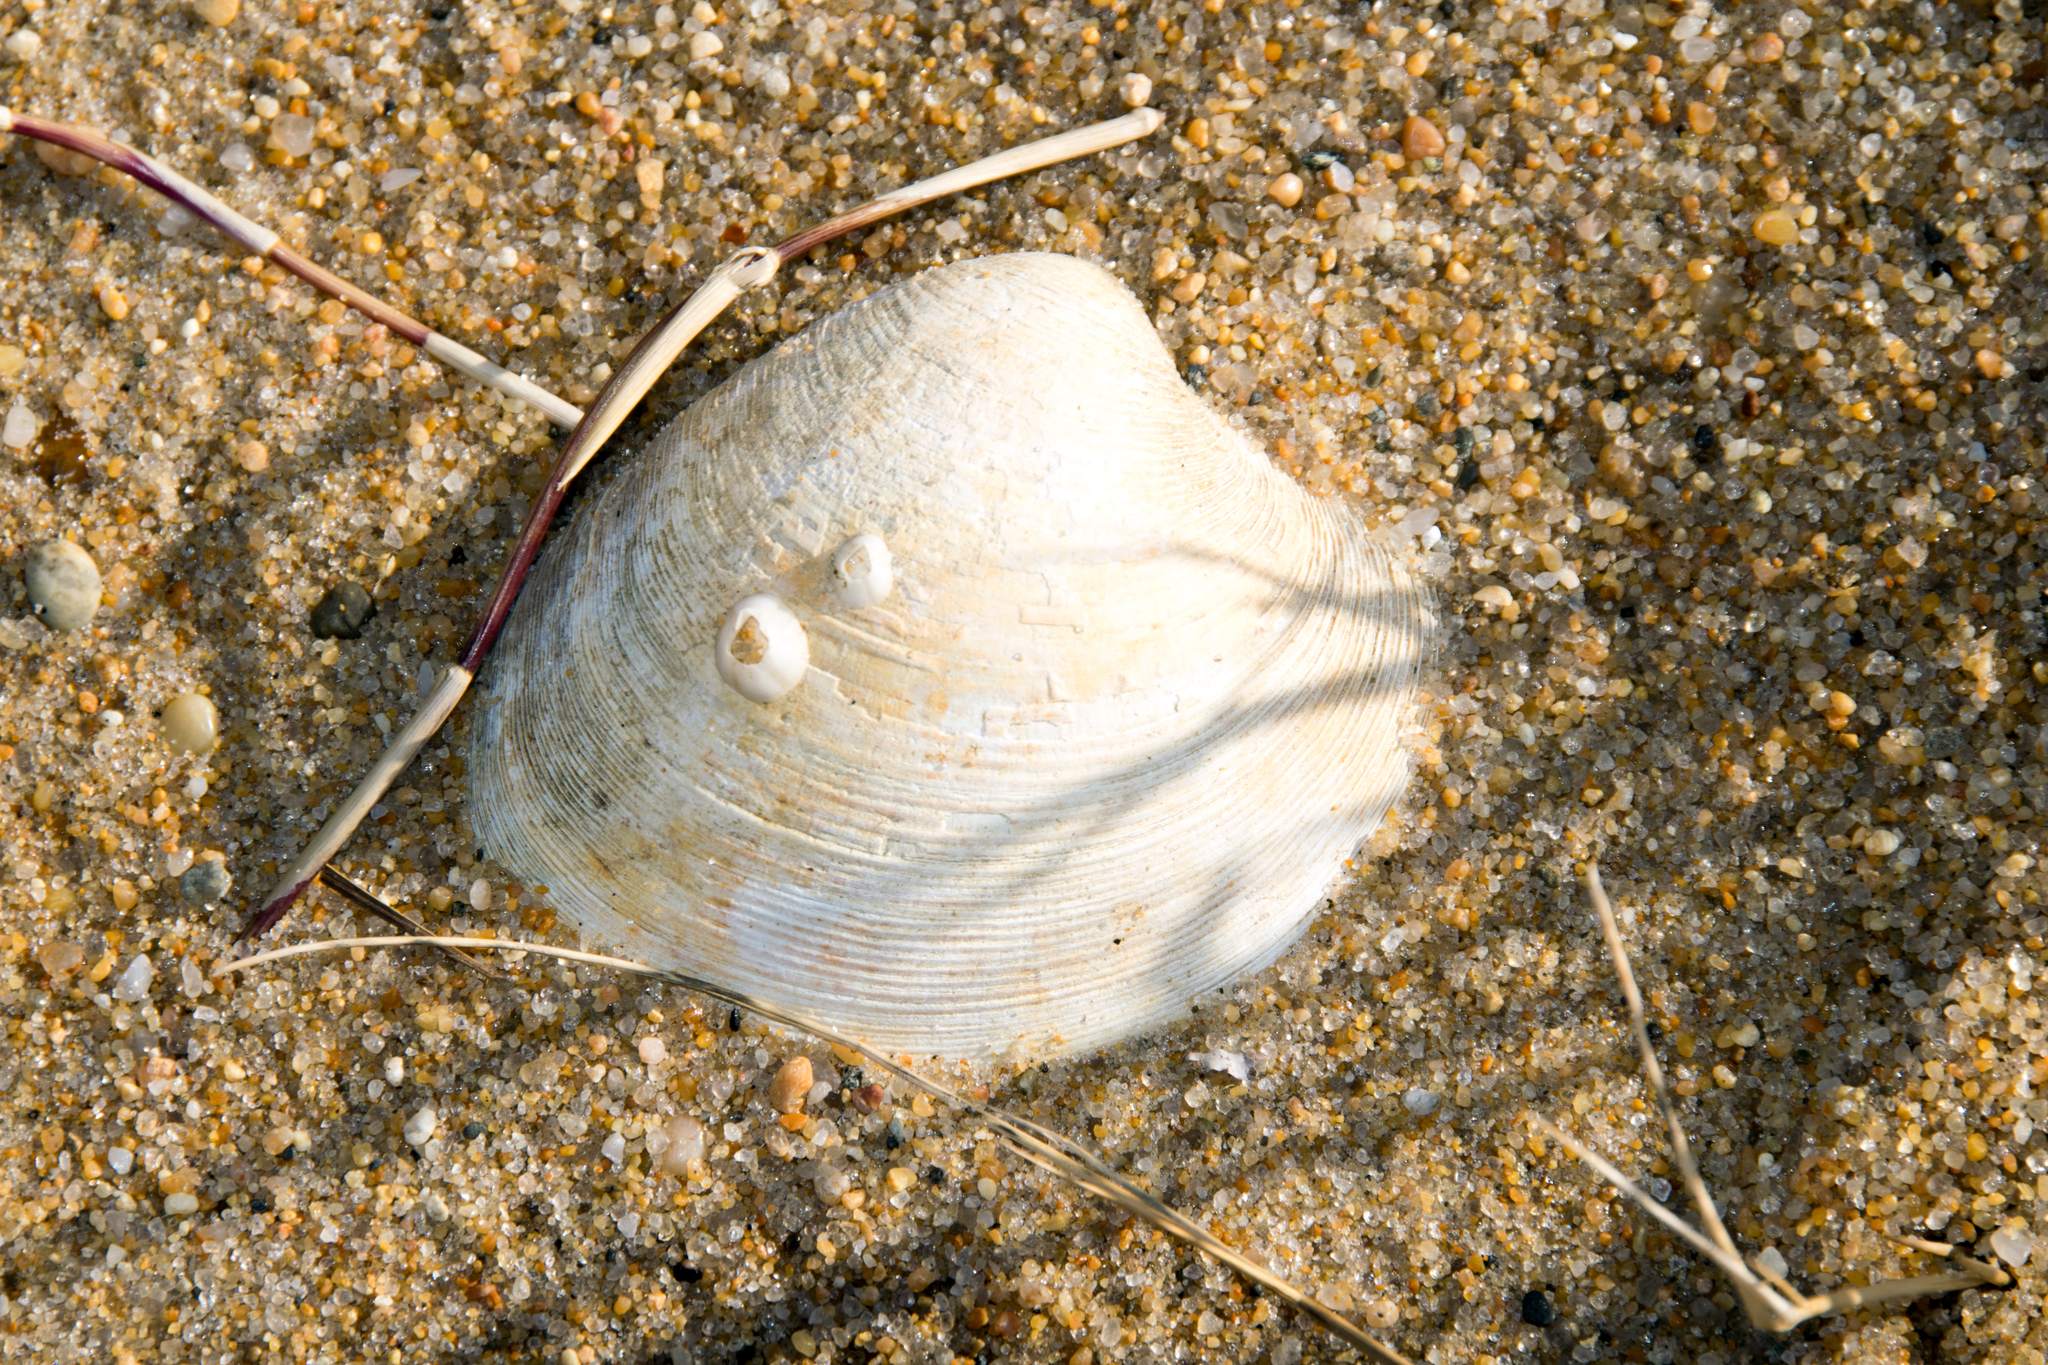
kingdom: Animalia
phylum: Mollusca
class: Bivalvia
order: Venerida
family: Veneridae
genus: Mercenaria
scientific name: Mercenaria mercenaria
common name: American hard-shelled clam
